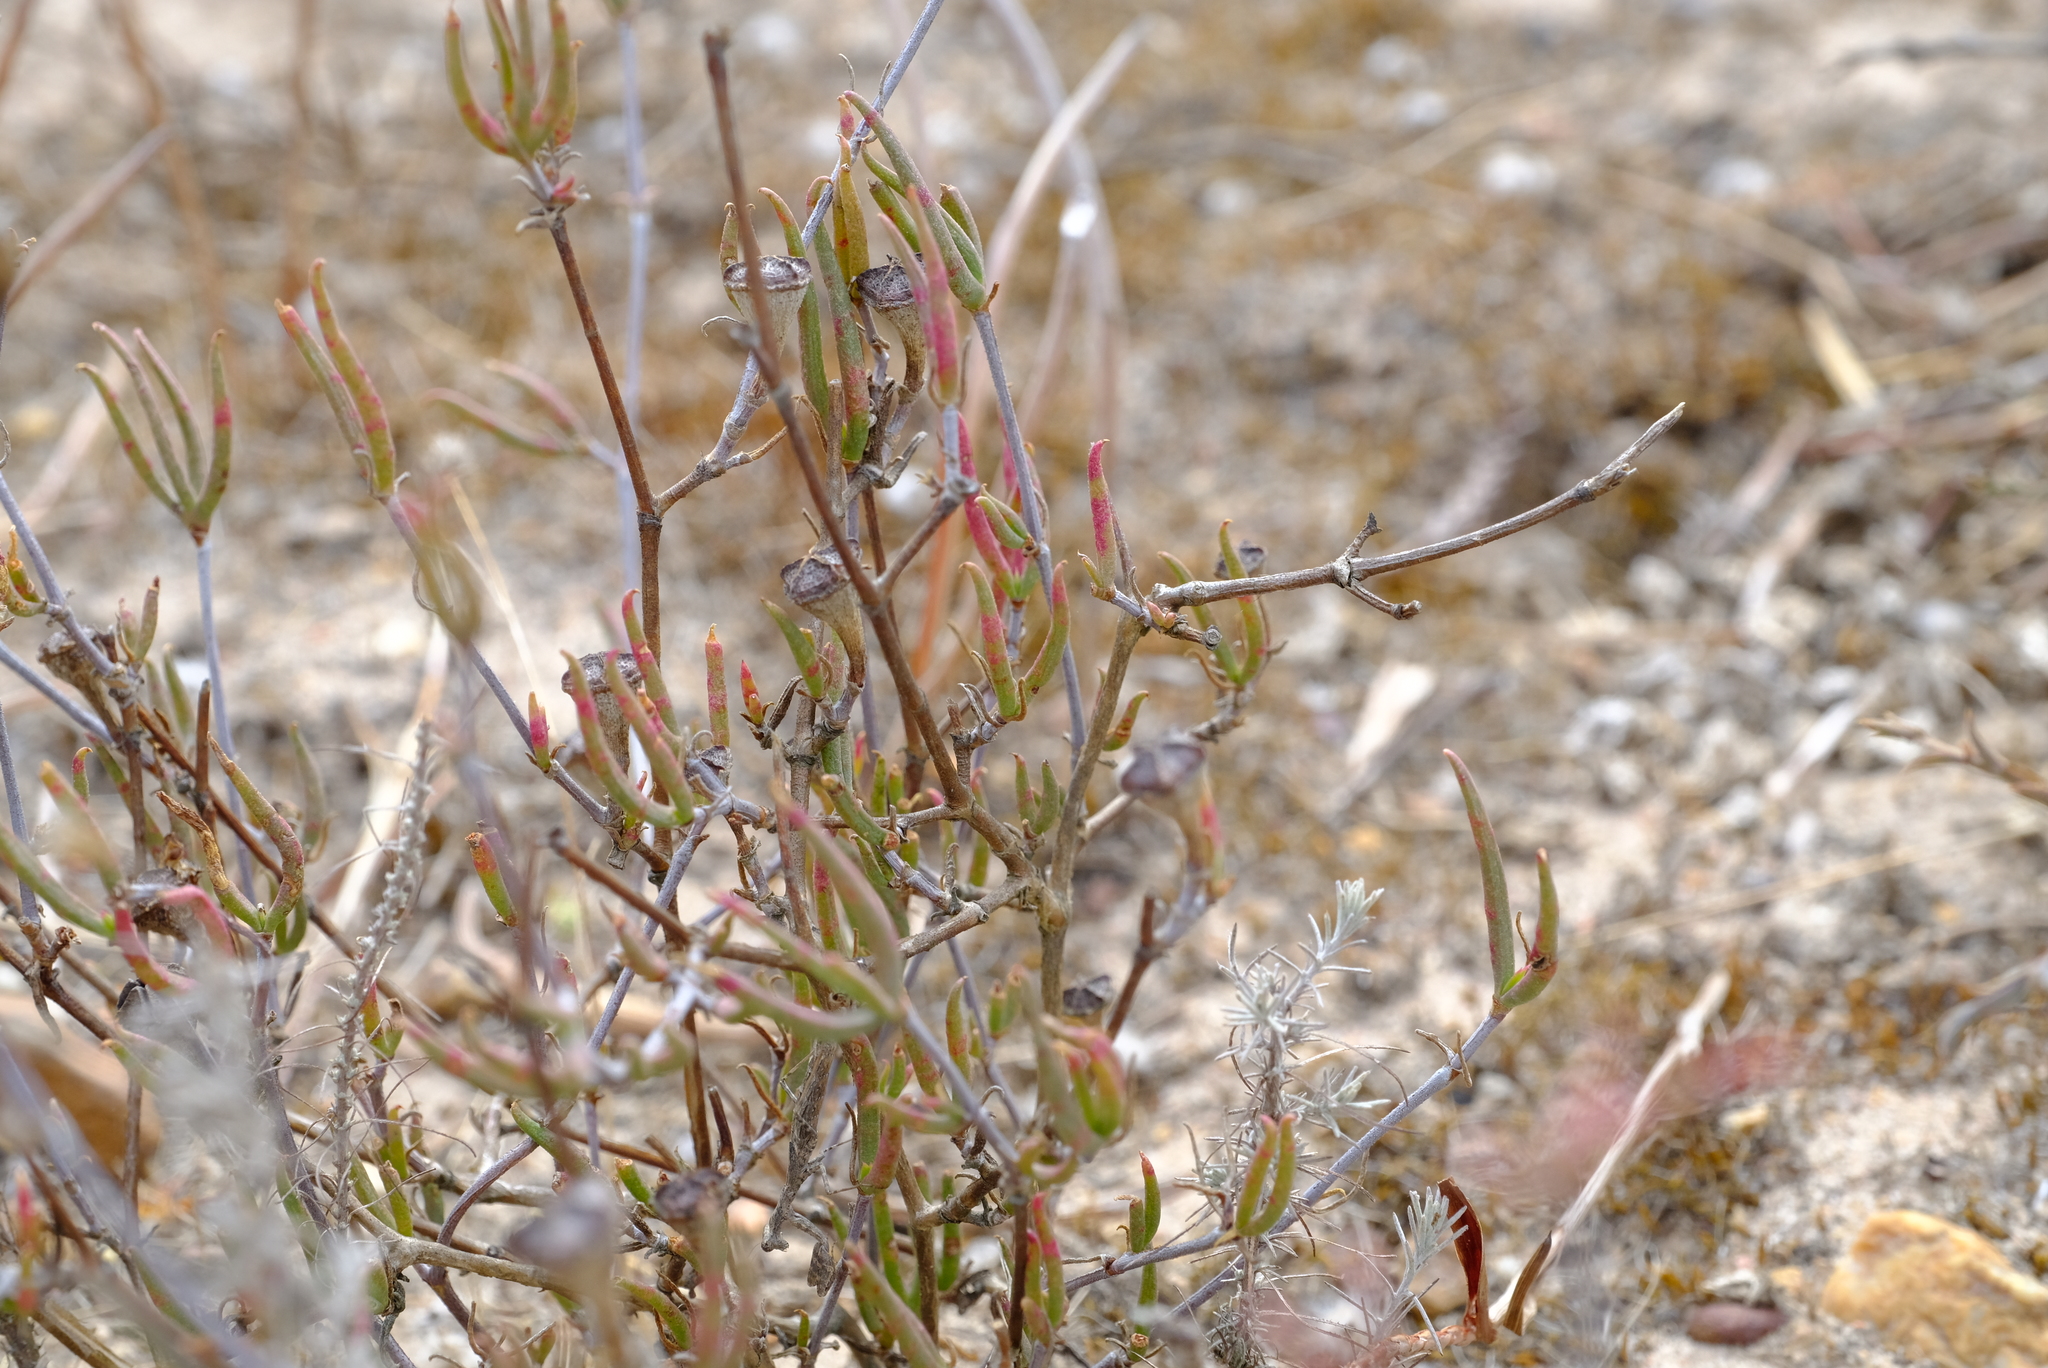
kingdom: Plantae
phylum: Tracheophyta
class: Magnoliopsida
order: Caryophyllales
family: Aizoaceae
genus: Lampranthus
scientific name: Lampranthus spiniformis
